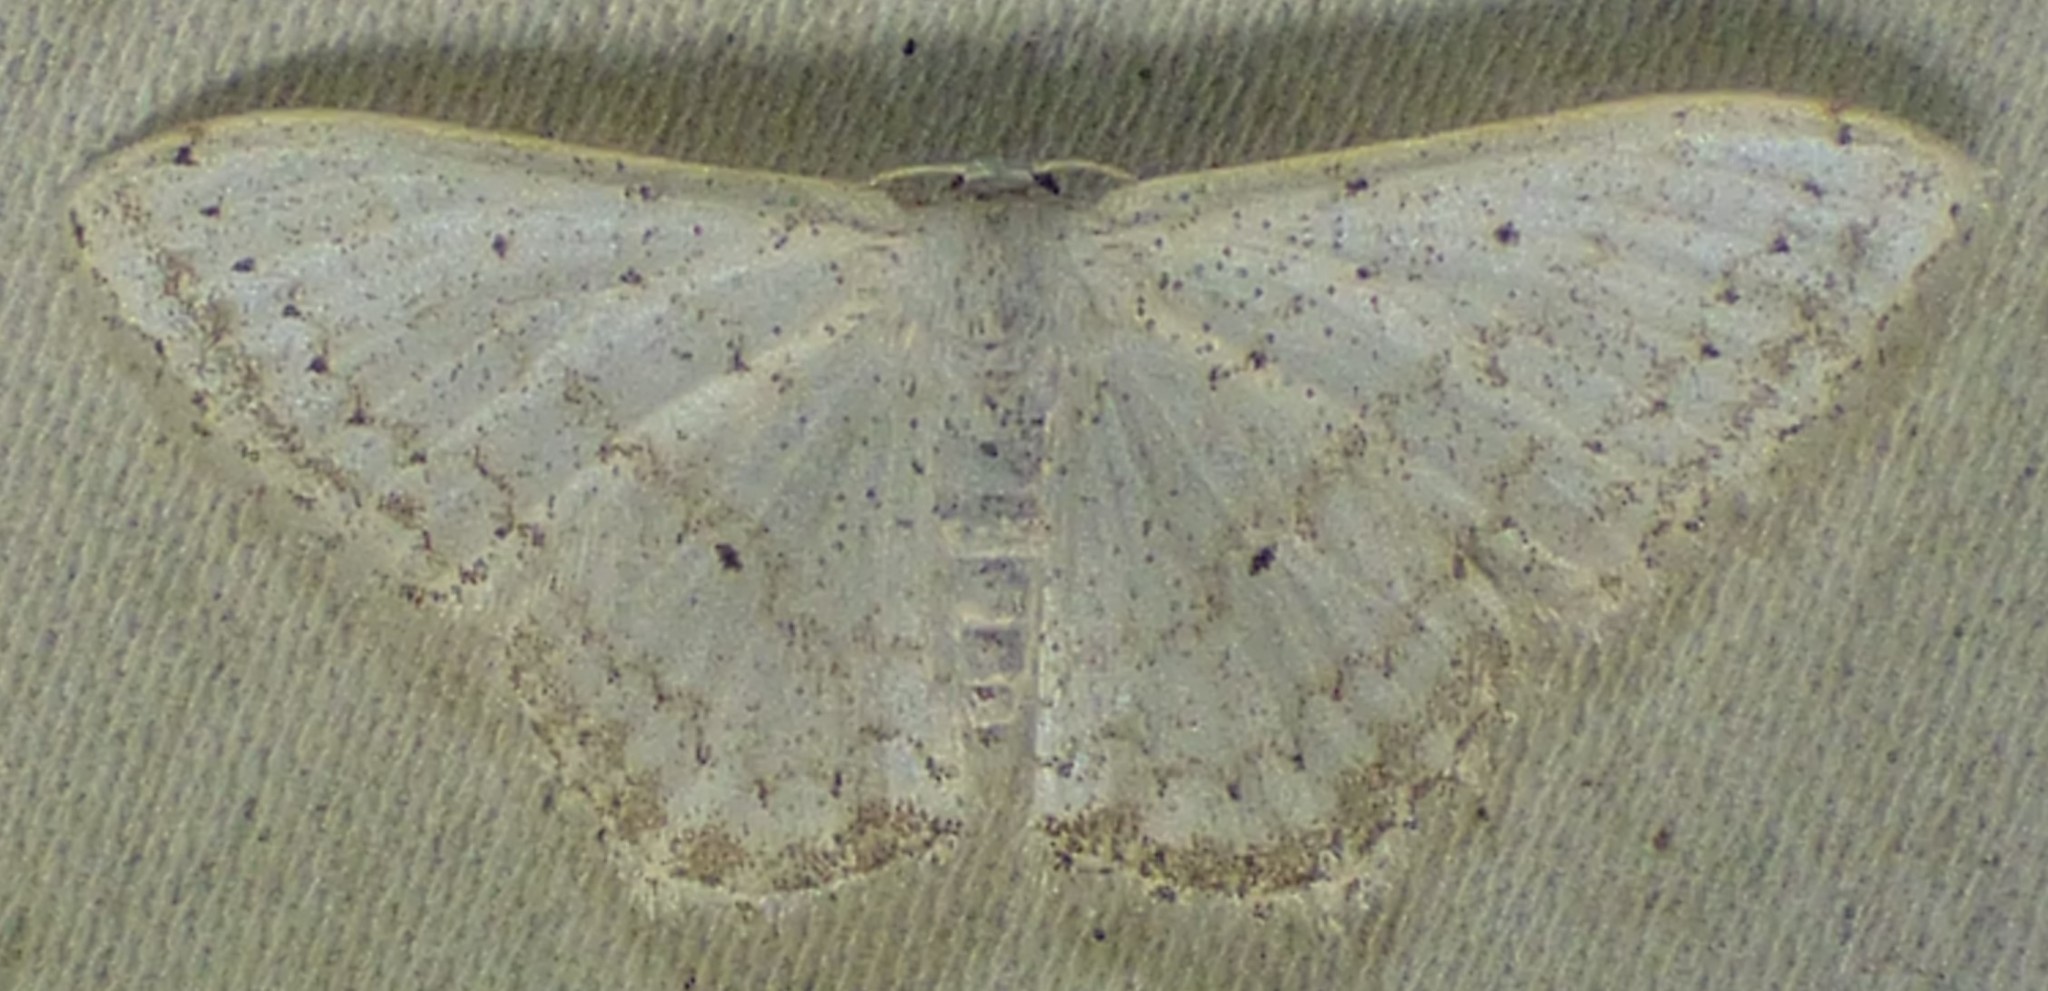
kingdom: Animalia
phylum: Arthropoda
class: Insecta
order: Lepidoptera
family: Geometridae
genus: Idaea
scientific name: Idaea tacturata
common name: Dot-lined wave
